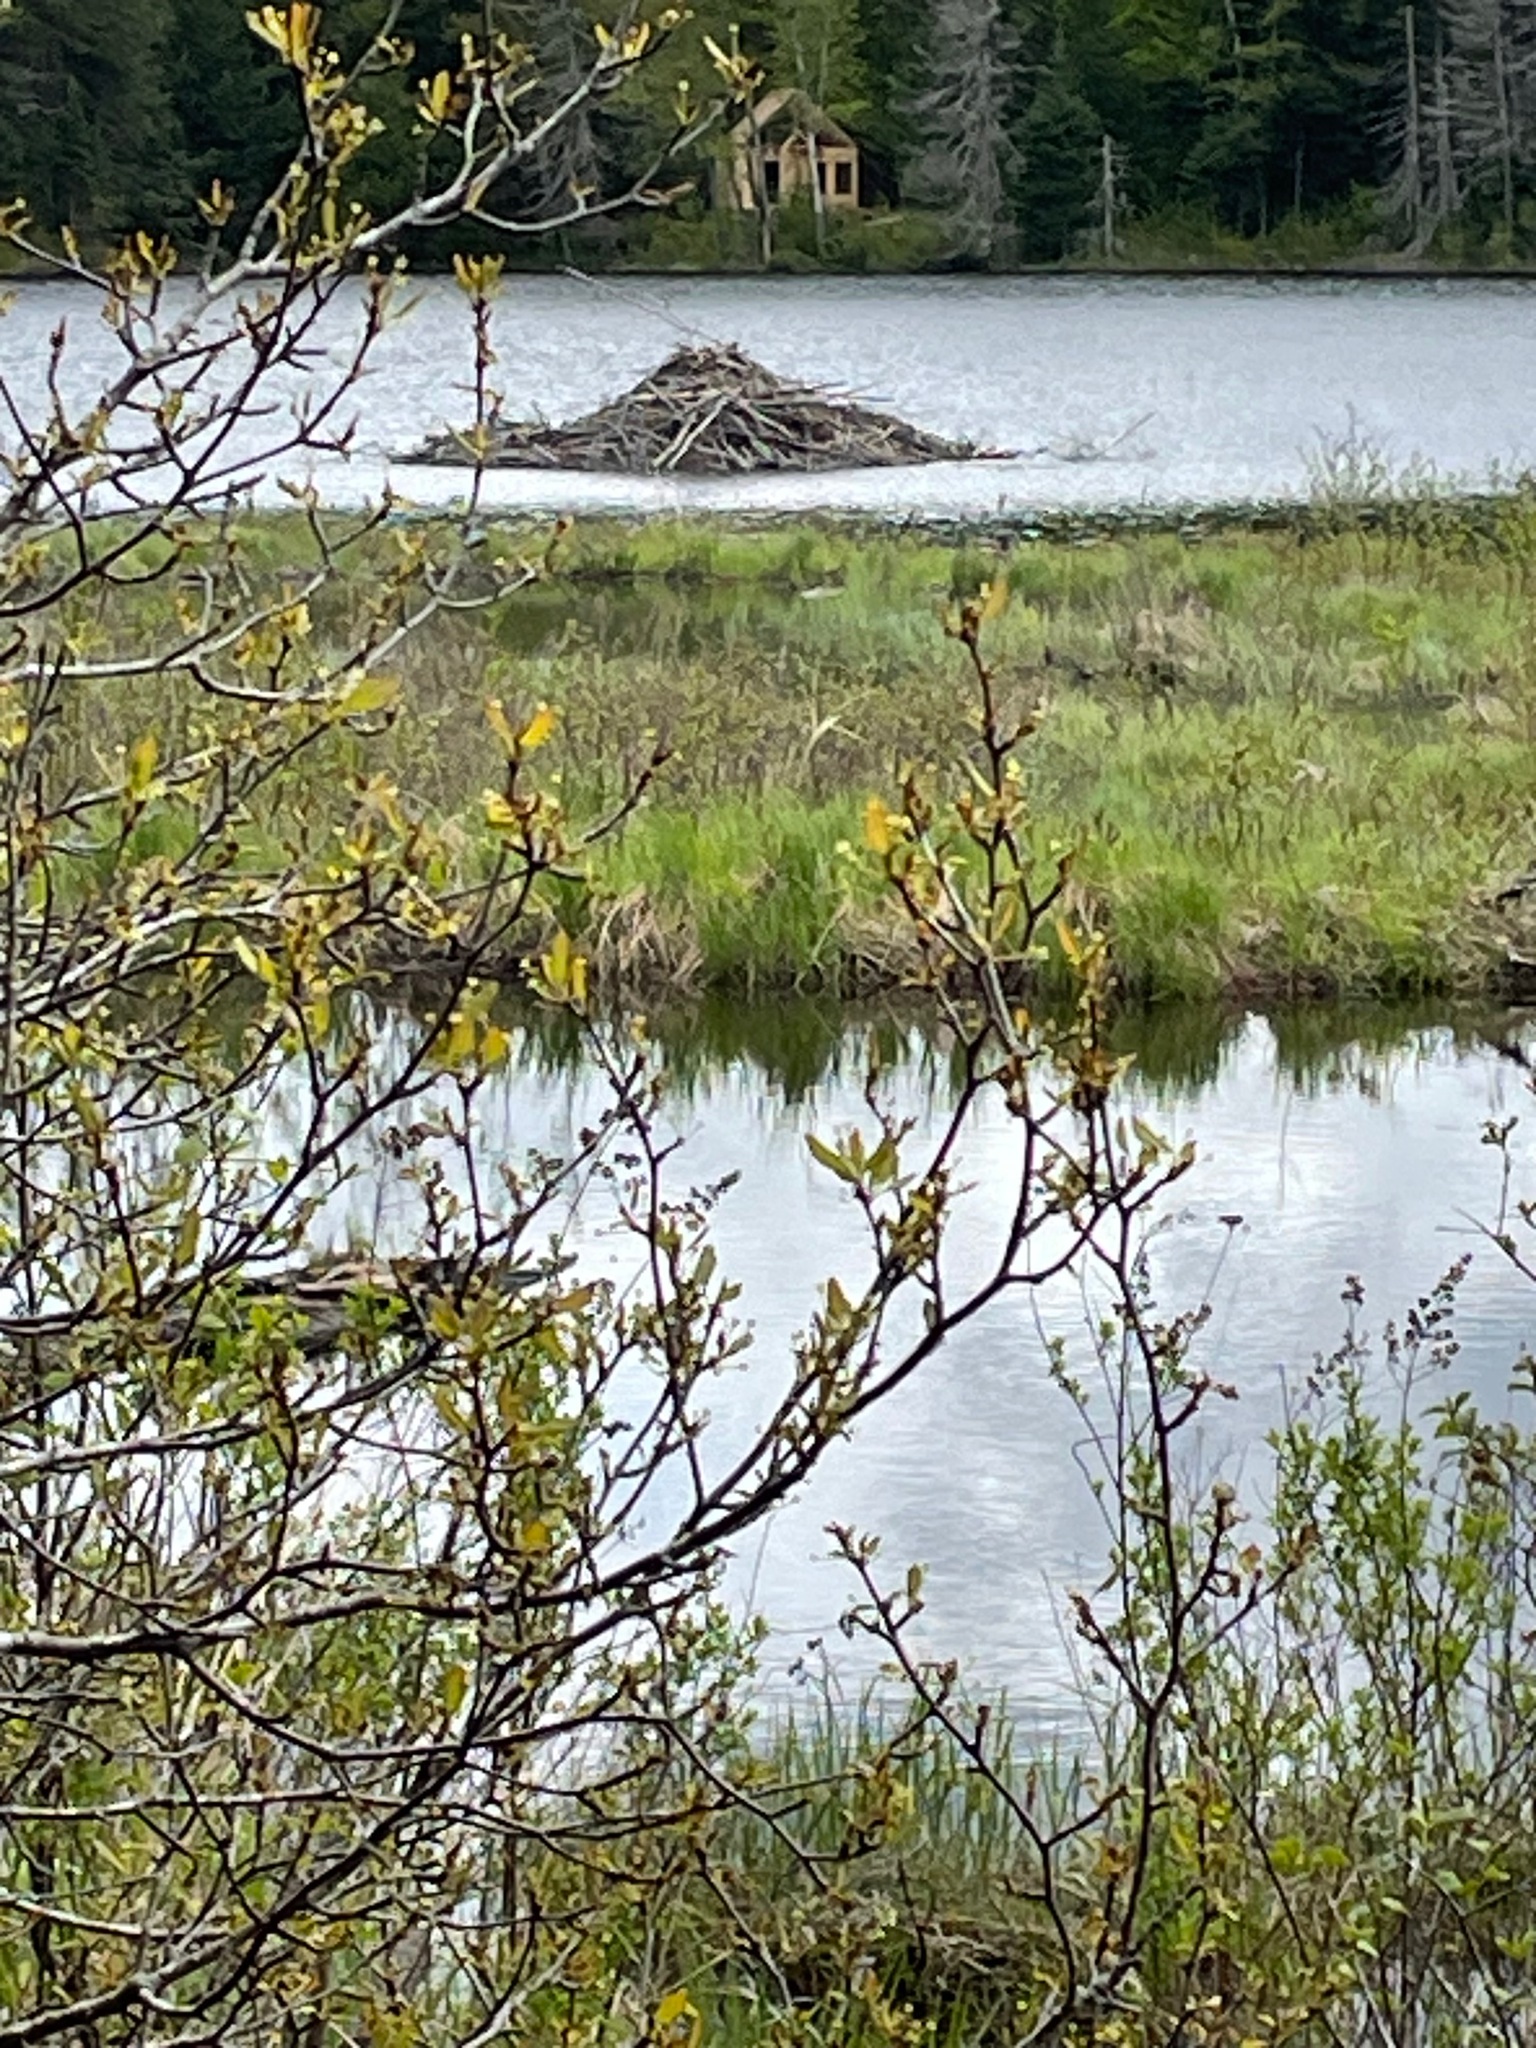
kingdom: Animalia
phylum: Chordata
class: Mammalia
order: Rodentia
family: Castoridae
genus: Castor
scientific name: Castor canadensis
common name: American beaver
